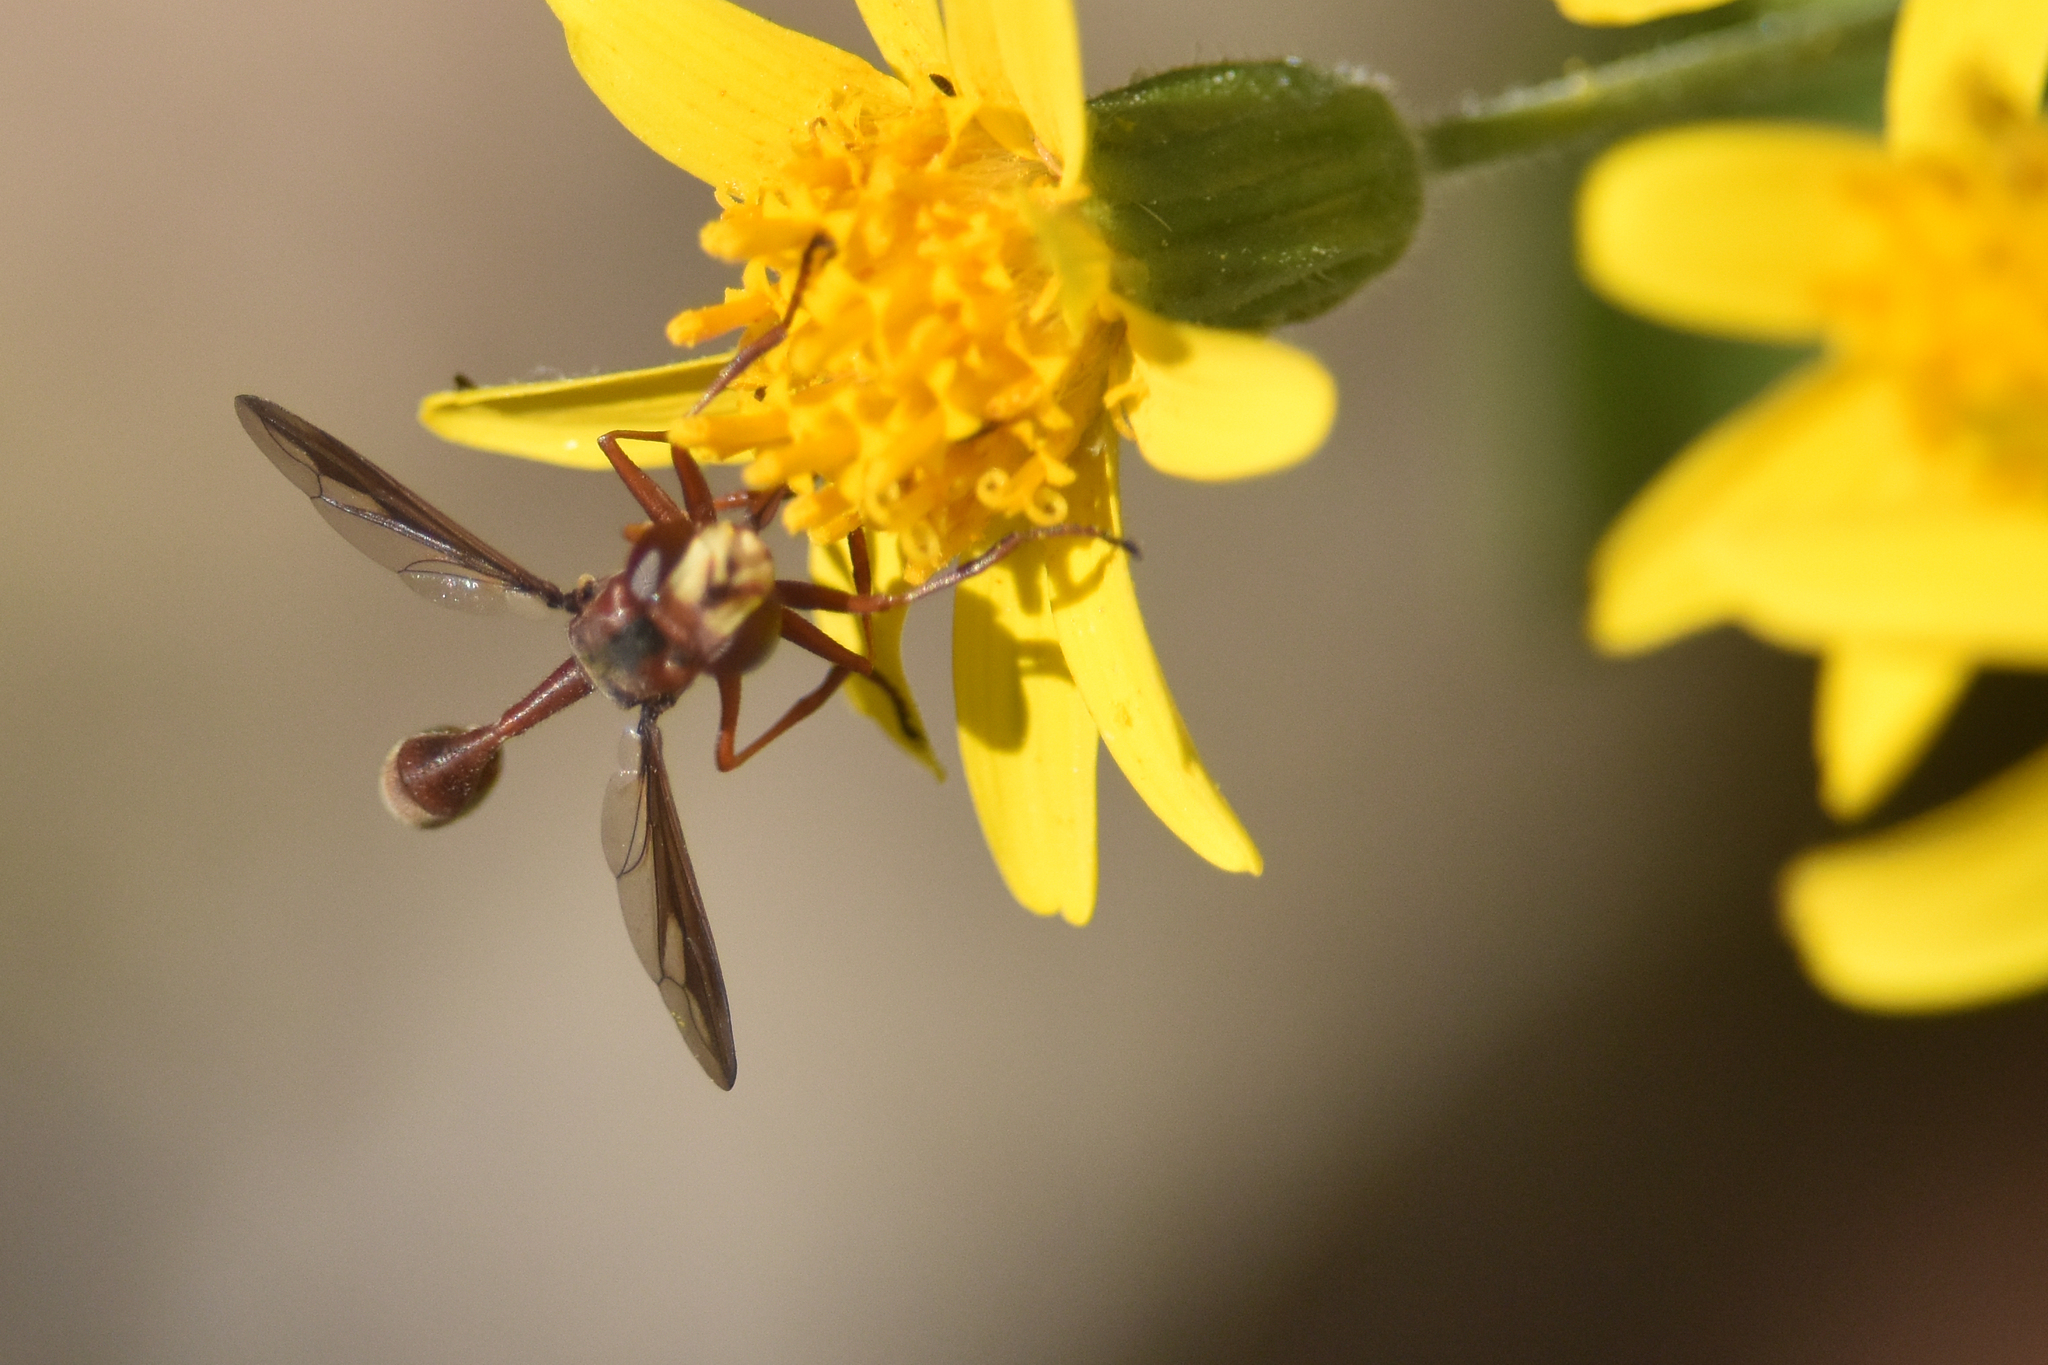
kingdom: Animalia
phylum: Arthropoda
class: Insecta
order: Diptera
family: Conopidae
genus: Physocephala
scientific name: Physocephala burgessi
